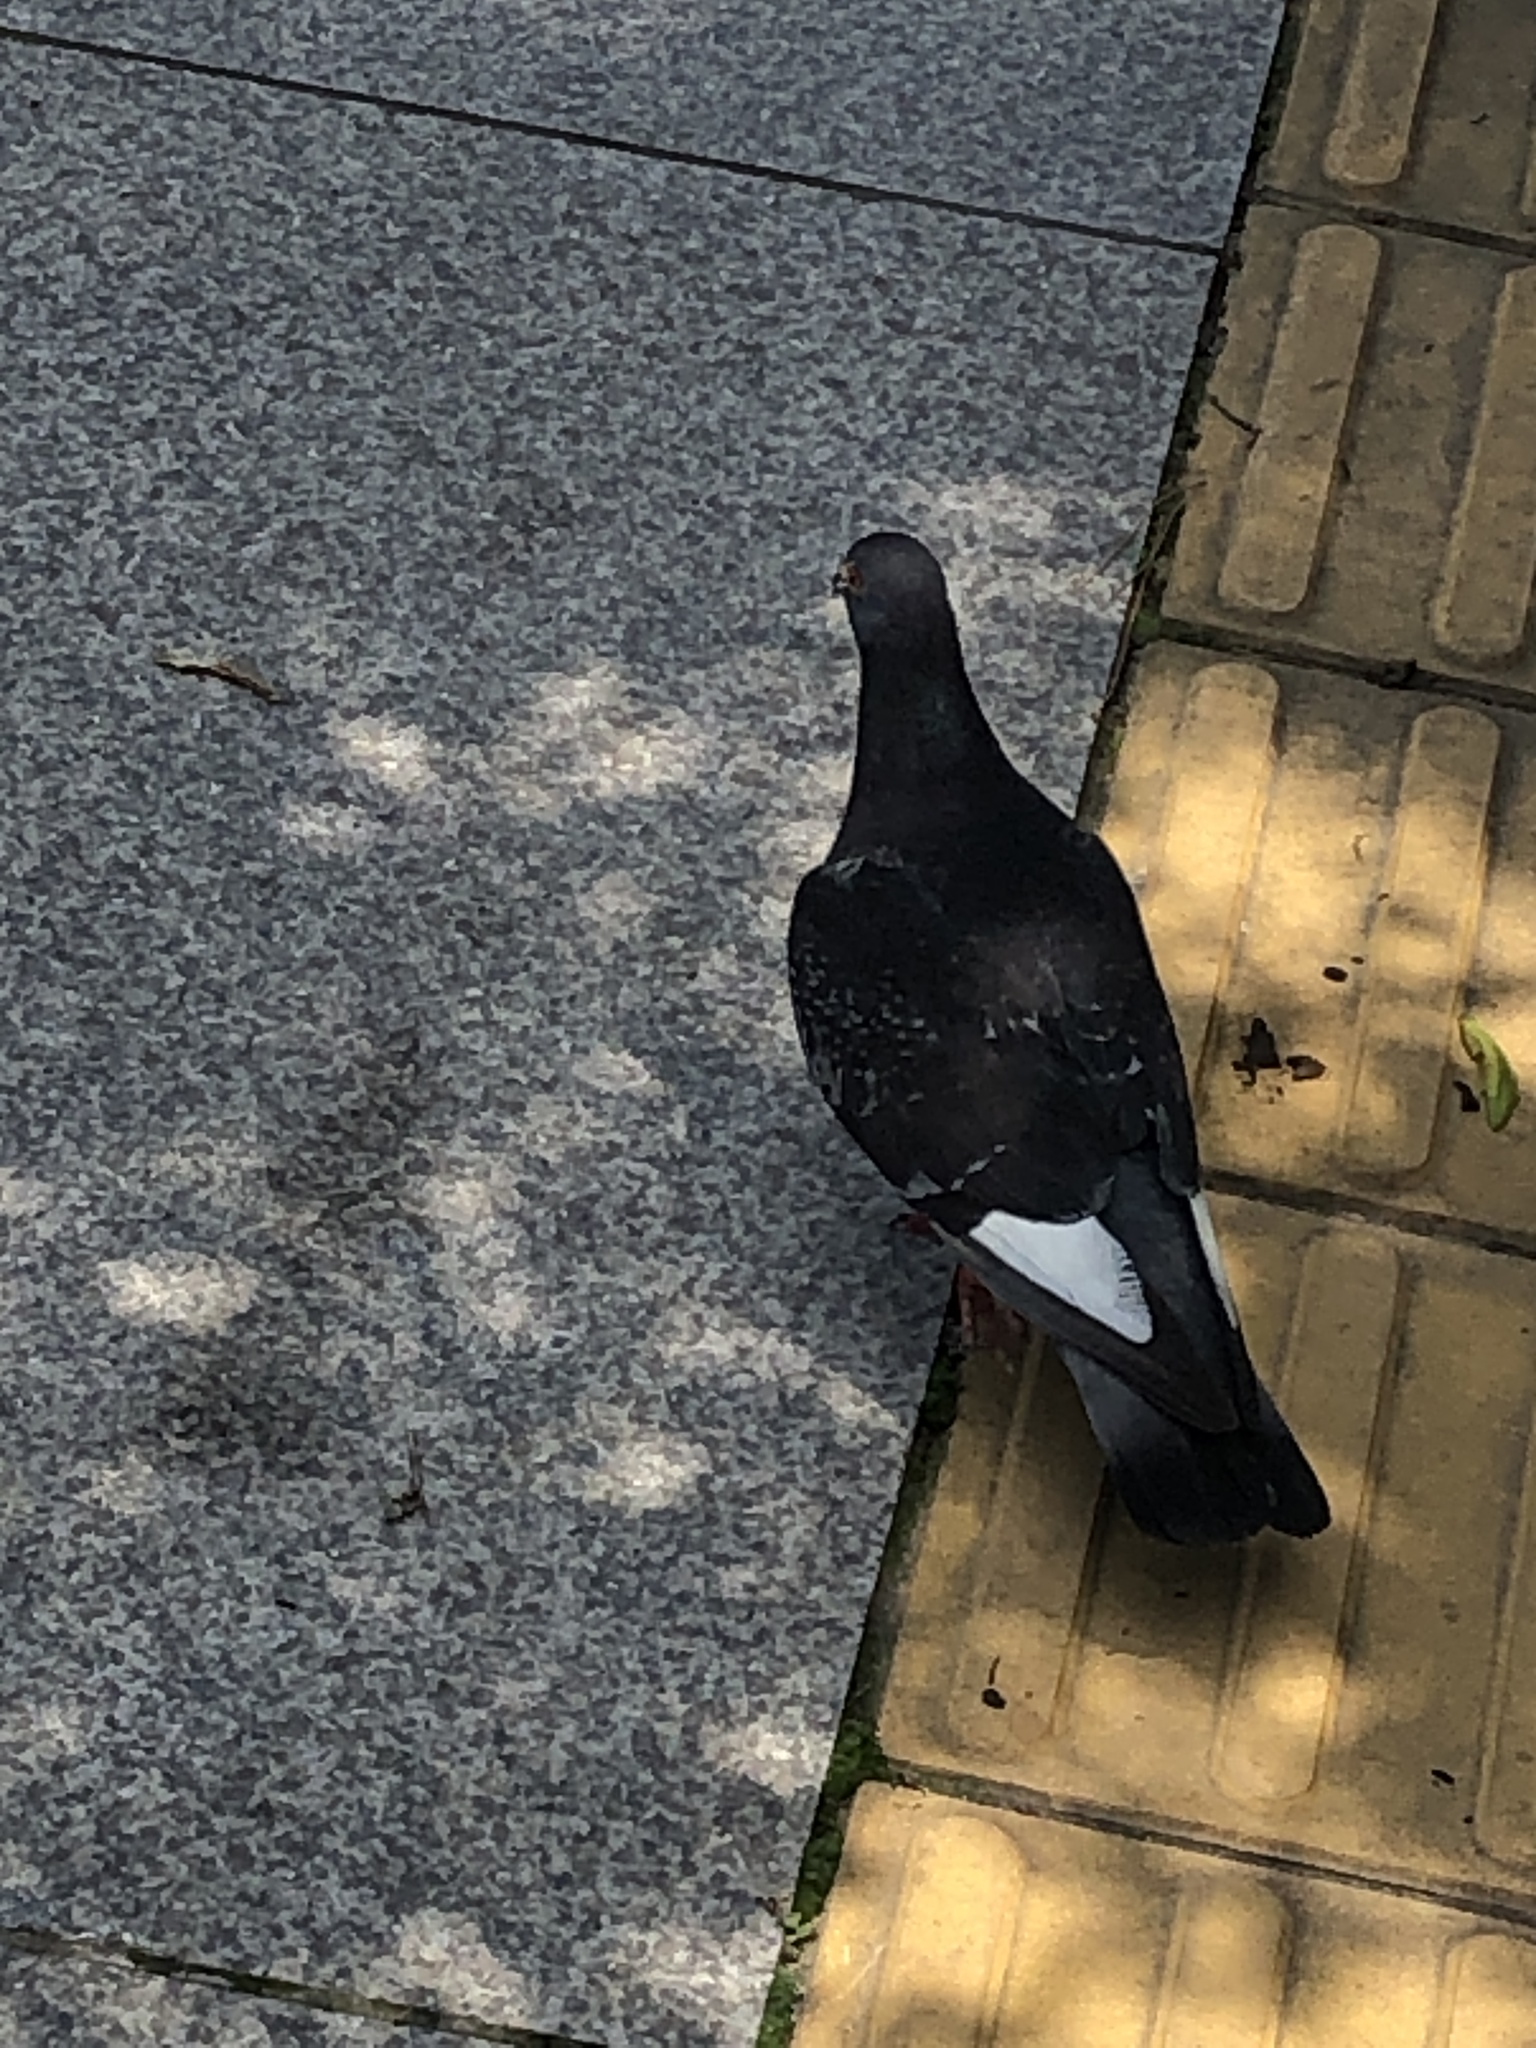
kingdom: Animalia
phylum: Chordata
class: Aves
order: Columbiformes
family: Columbidae
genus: Columba
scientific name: Columba livia
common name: Rock pigeon
